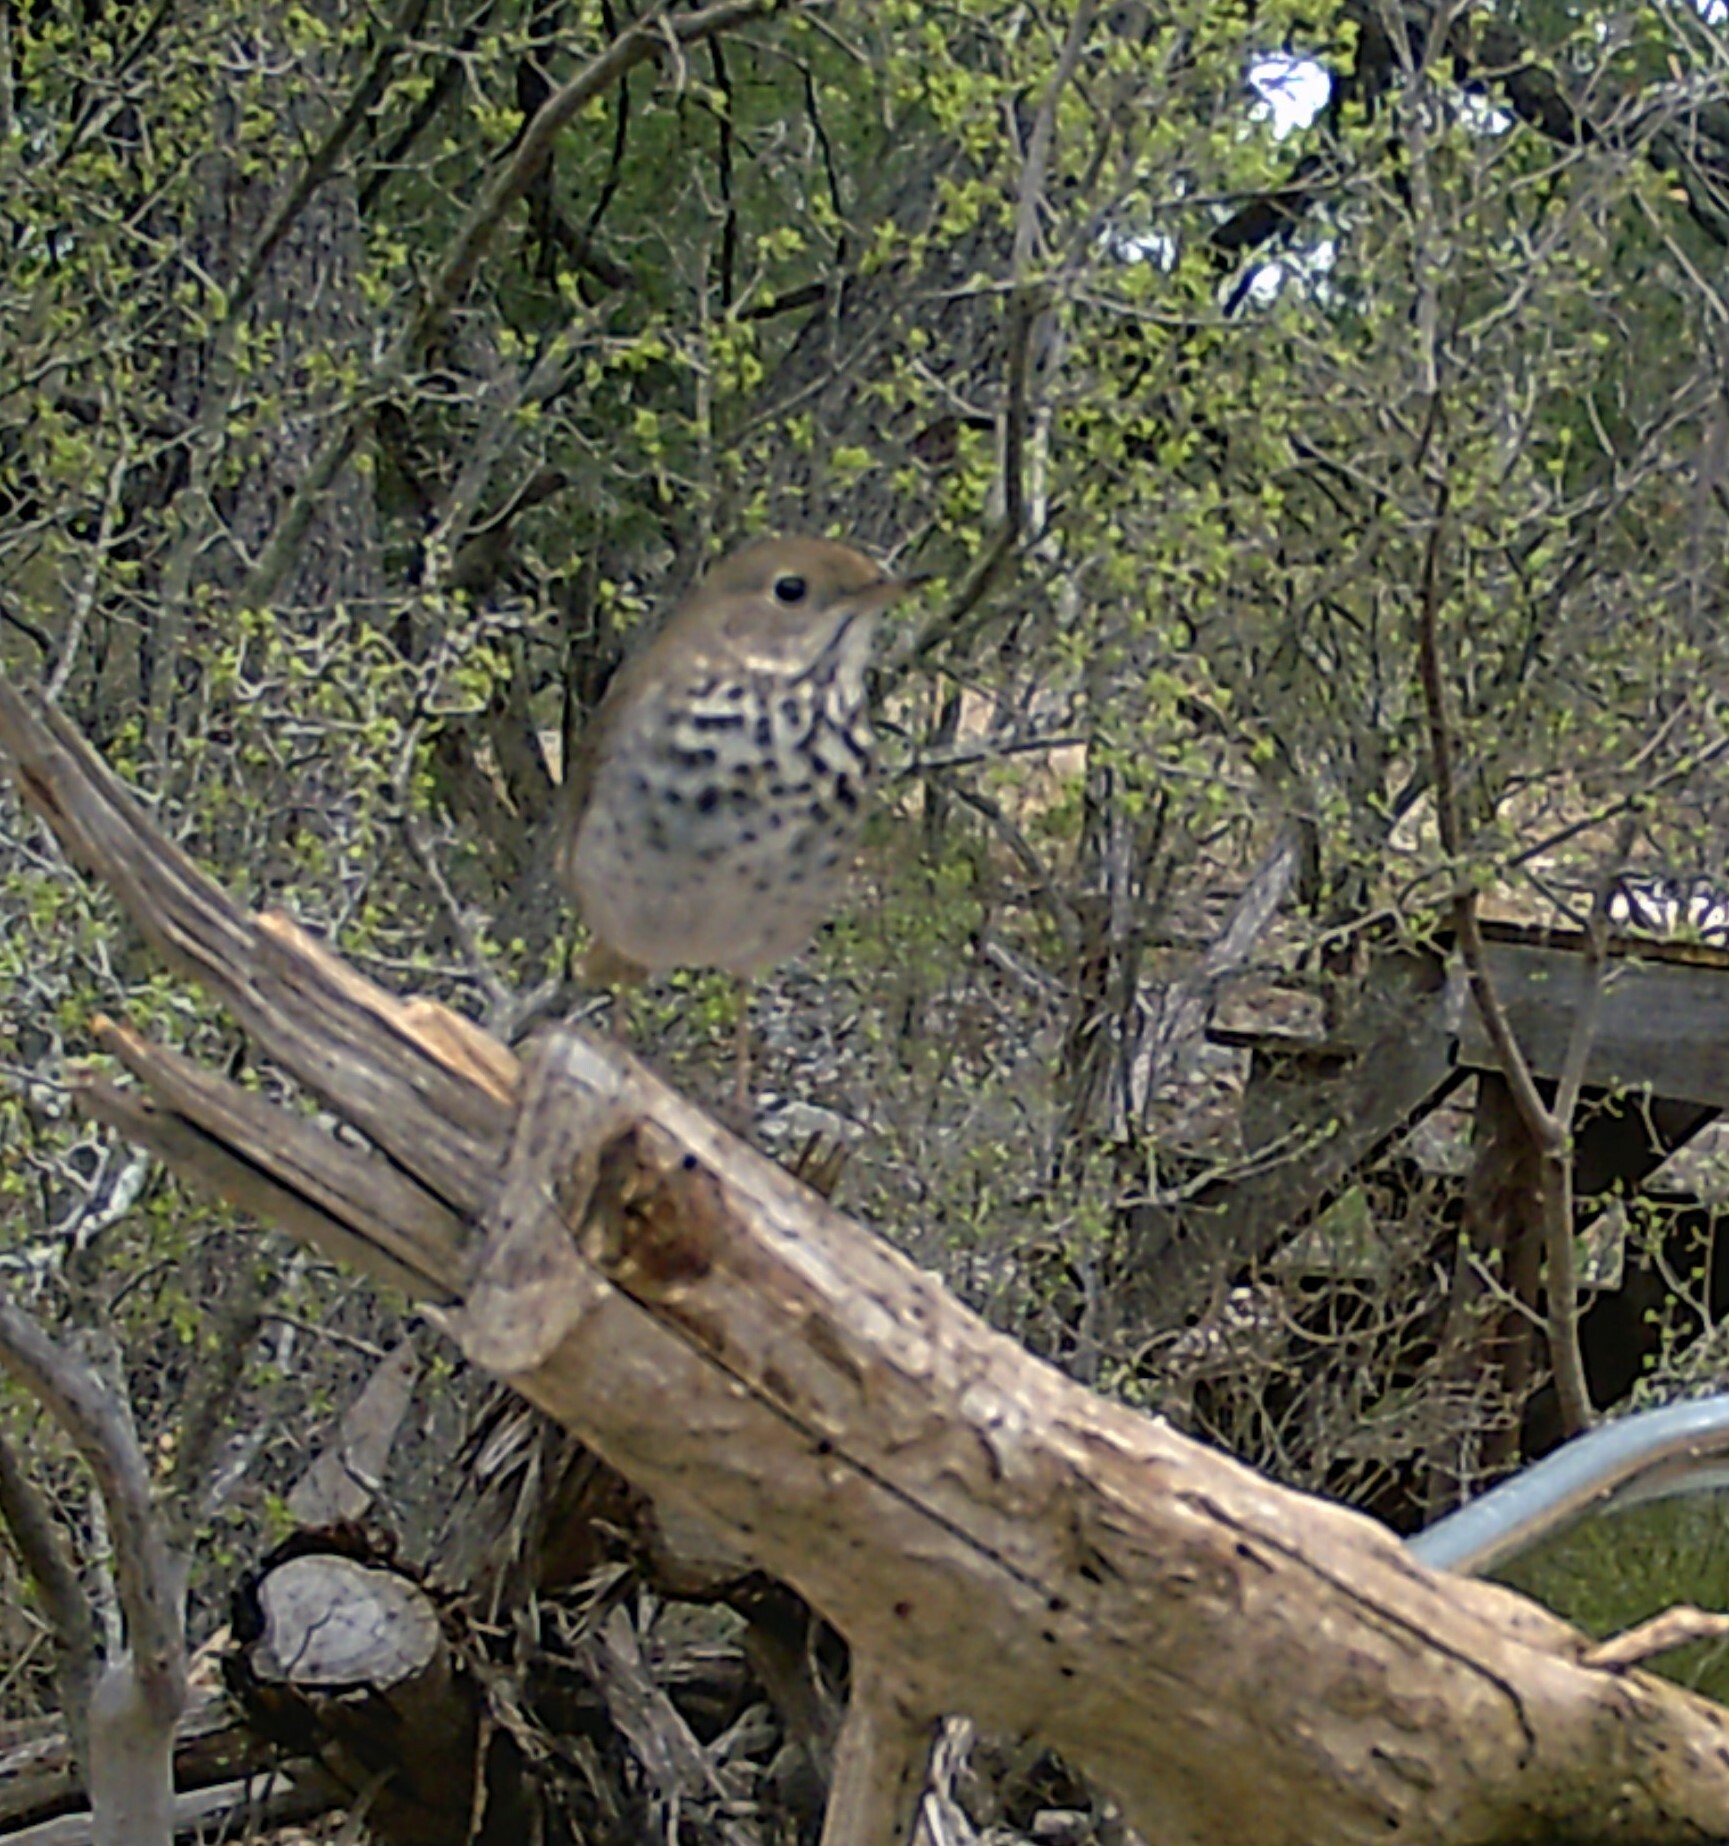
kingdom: Animalia
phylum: Chordata
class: Aves
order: Passeriformes
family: Turdidae
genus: Catharus
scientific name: Catharus guttatus
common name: Hermit thrush
